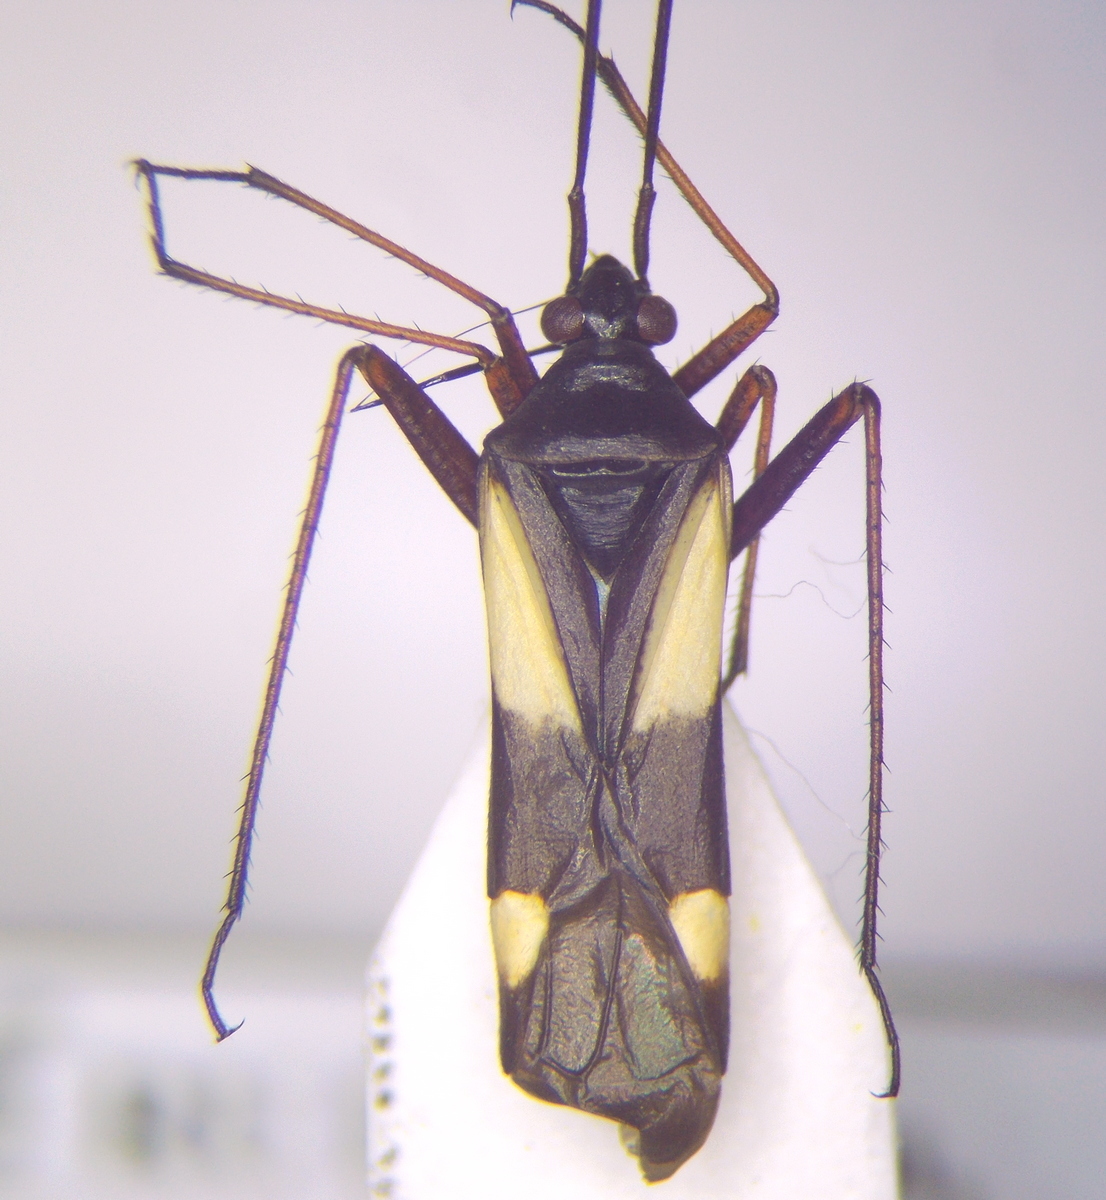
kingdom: Animalia
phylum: Arthropoda
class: Insecta
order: Hemiptera
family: Miridae
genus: Alloeonotus
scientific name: Alloeonotus fulvipes
